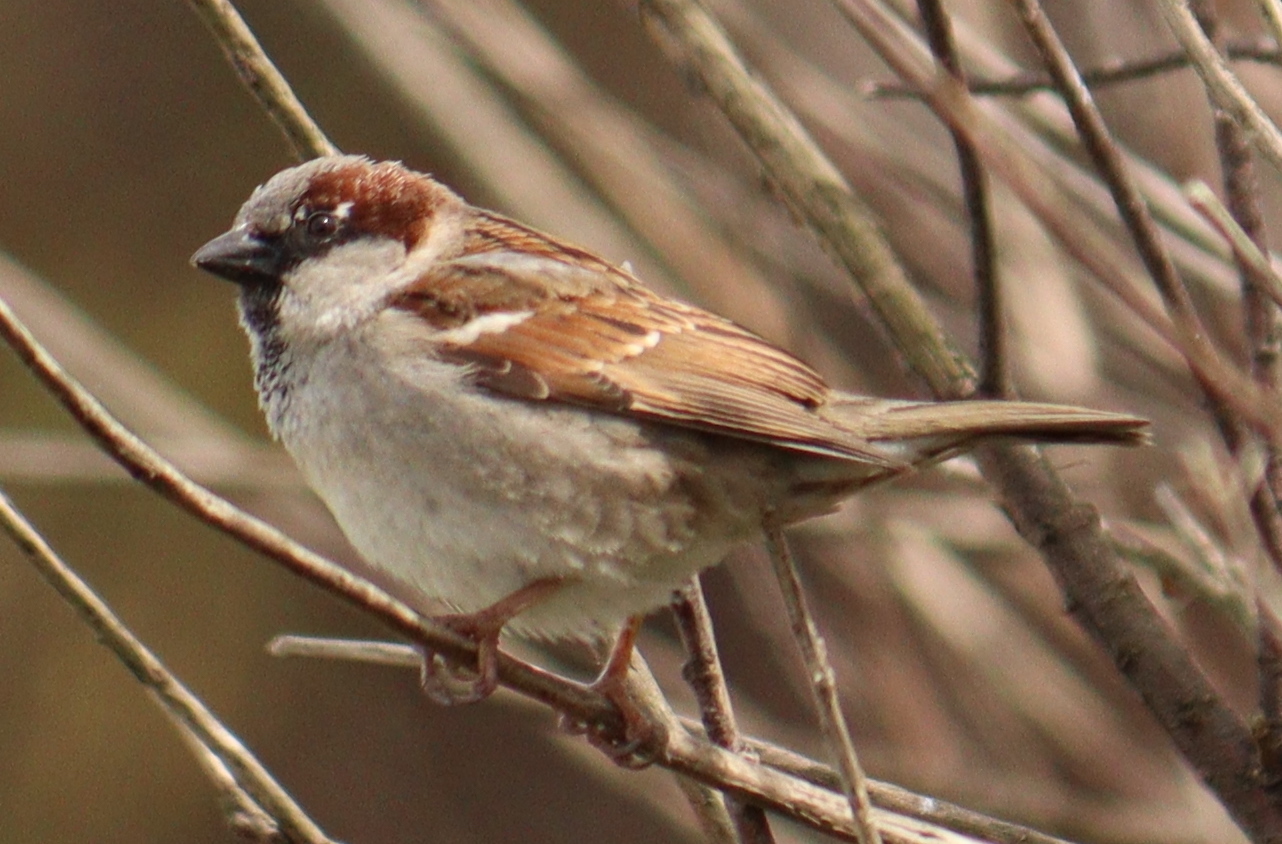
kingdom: Animalia
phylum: Chordata
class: Aves
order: Passeriformes
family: Passeridae
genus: Passer
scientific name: Passer domesticus
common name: House sparrow
